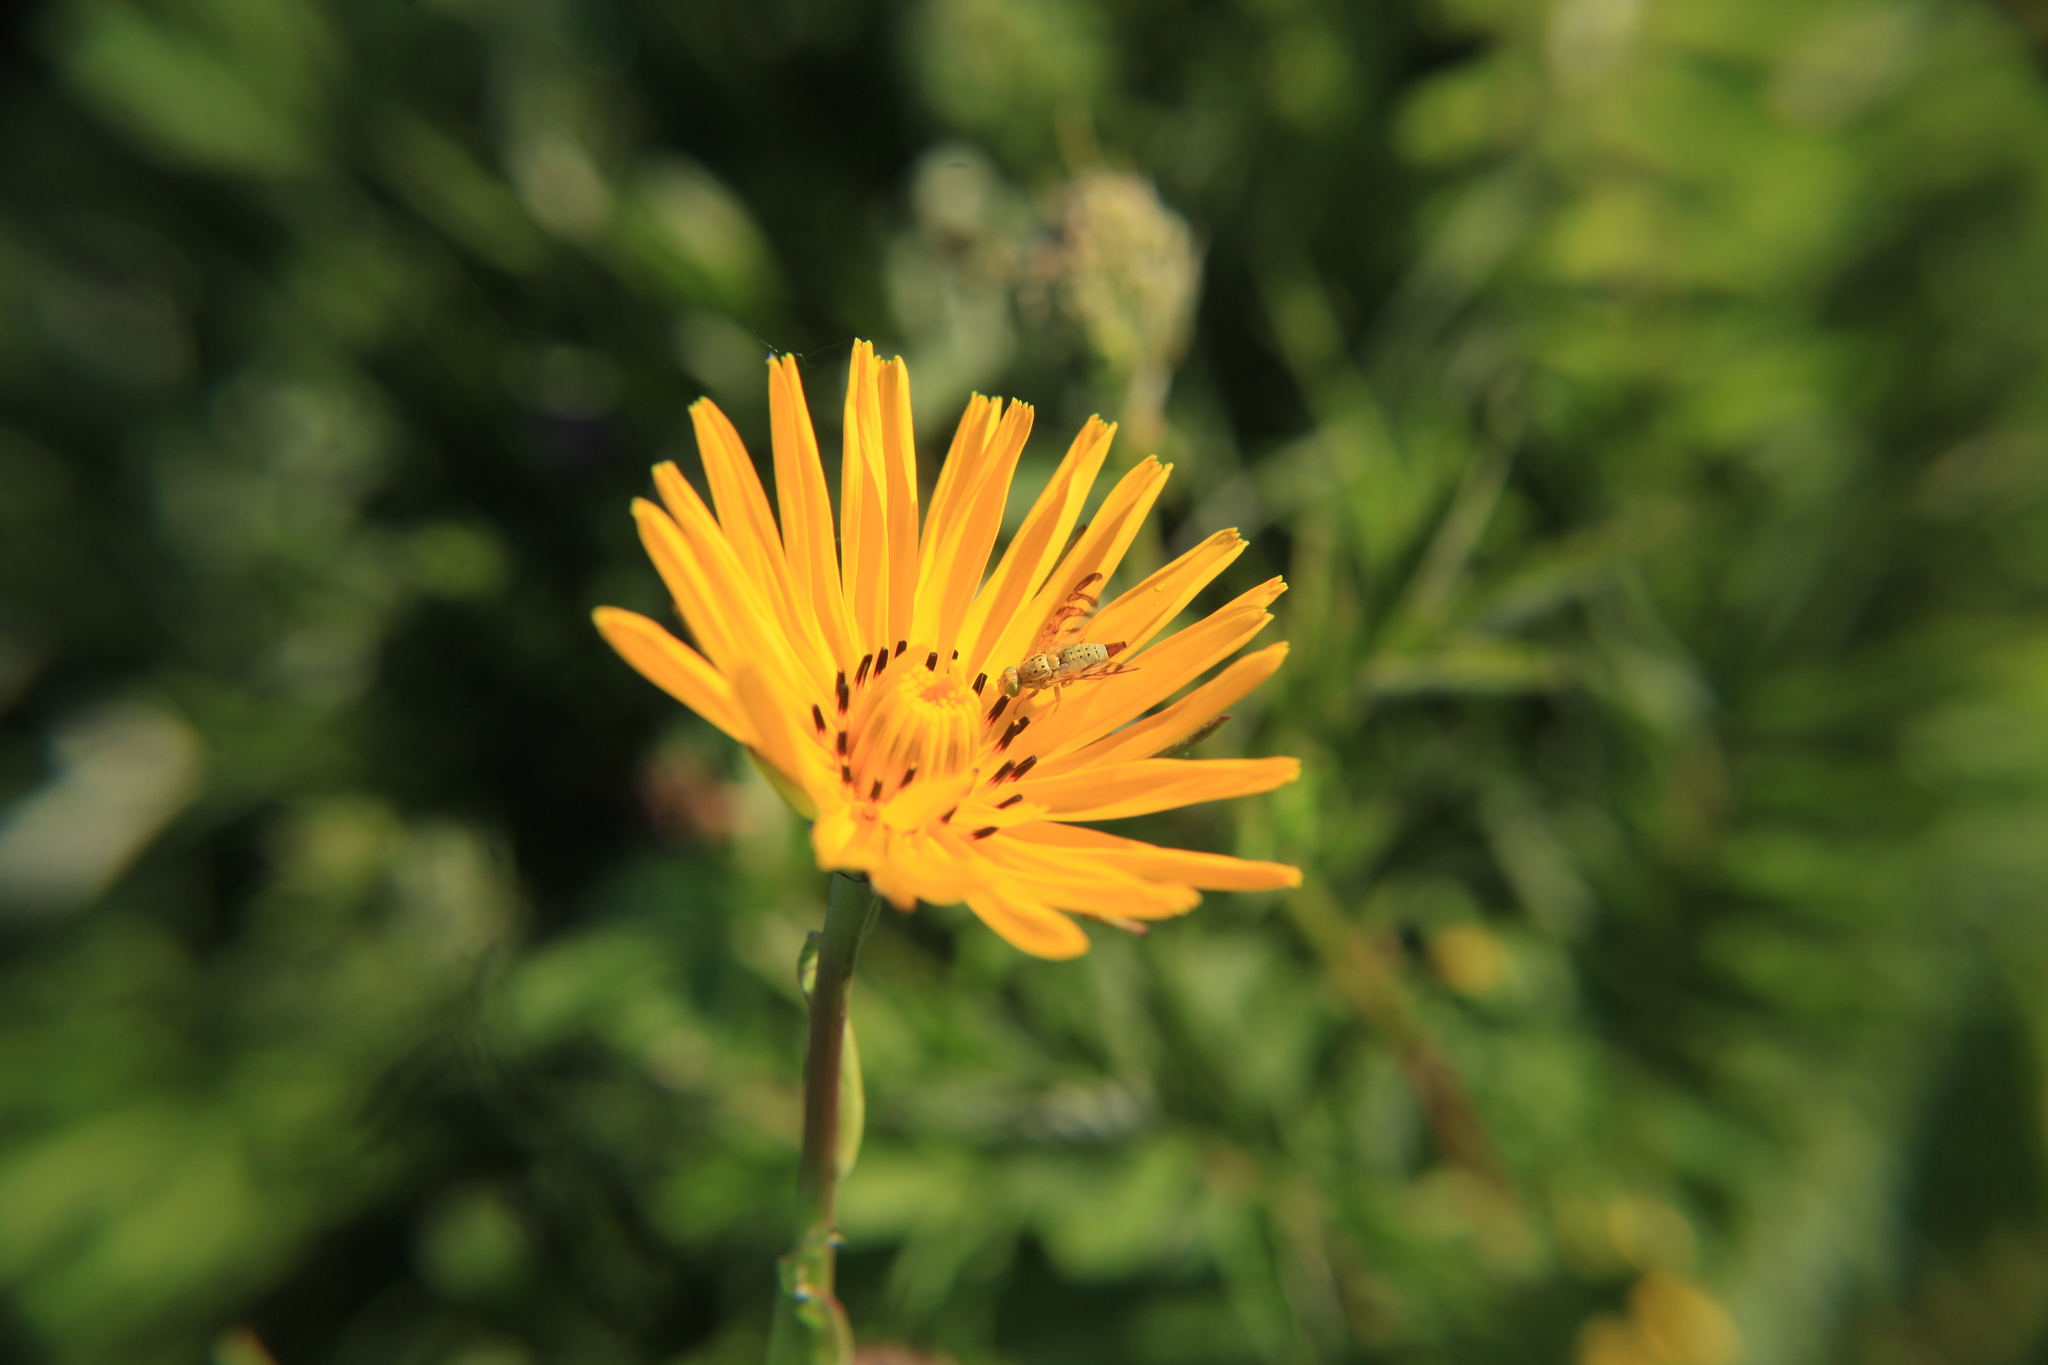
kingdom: Plantae
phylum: Tracheophyta
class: Magnoliopsida
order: Asterales
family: Asteraceae
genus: Tragopogon
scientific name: Tragopogon orientalis
